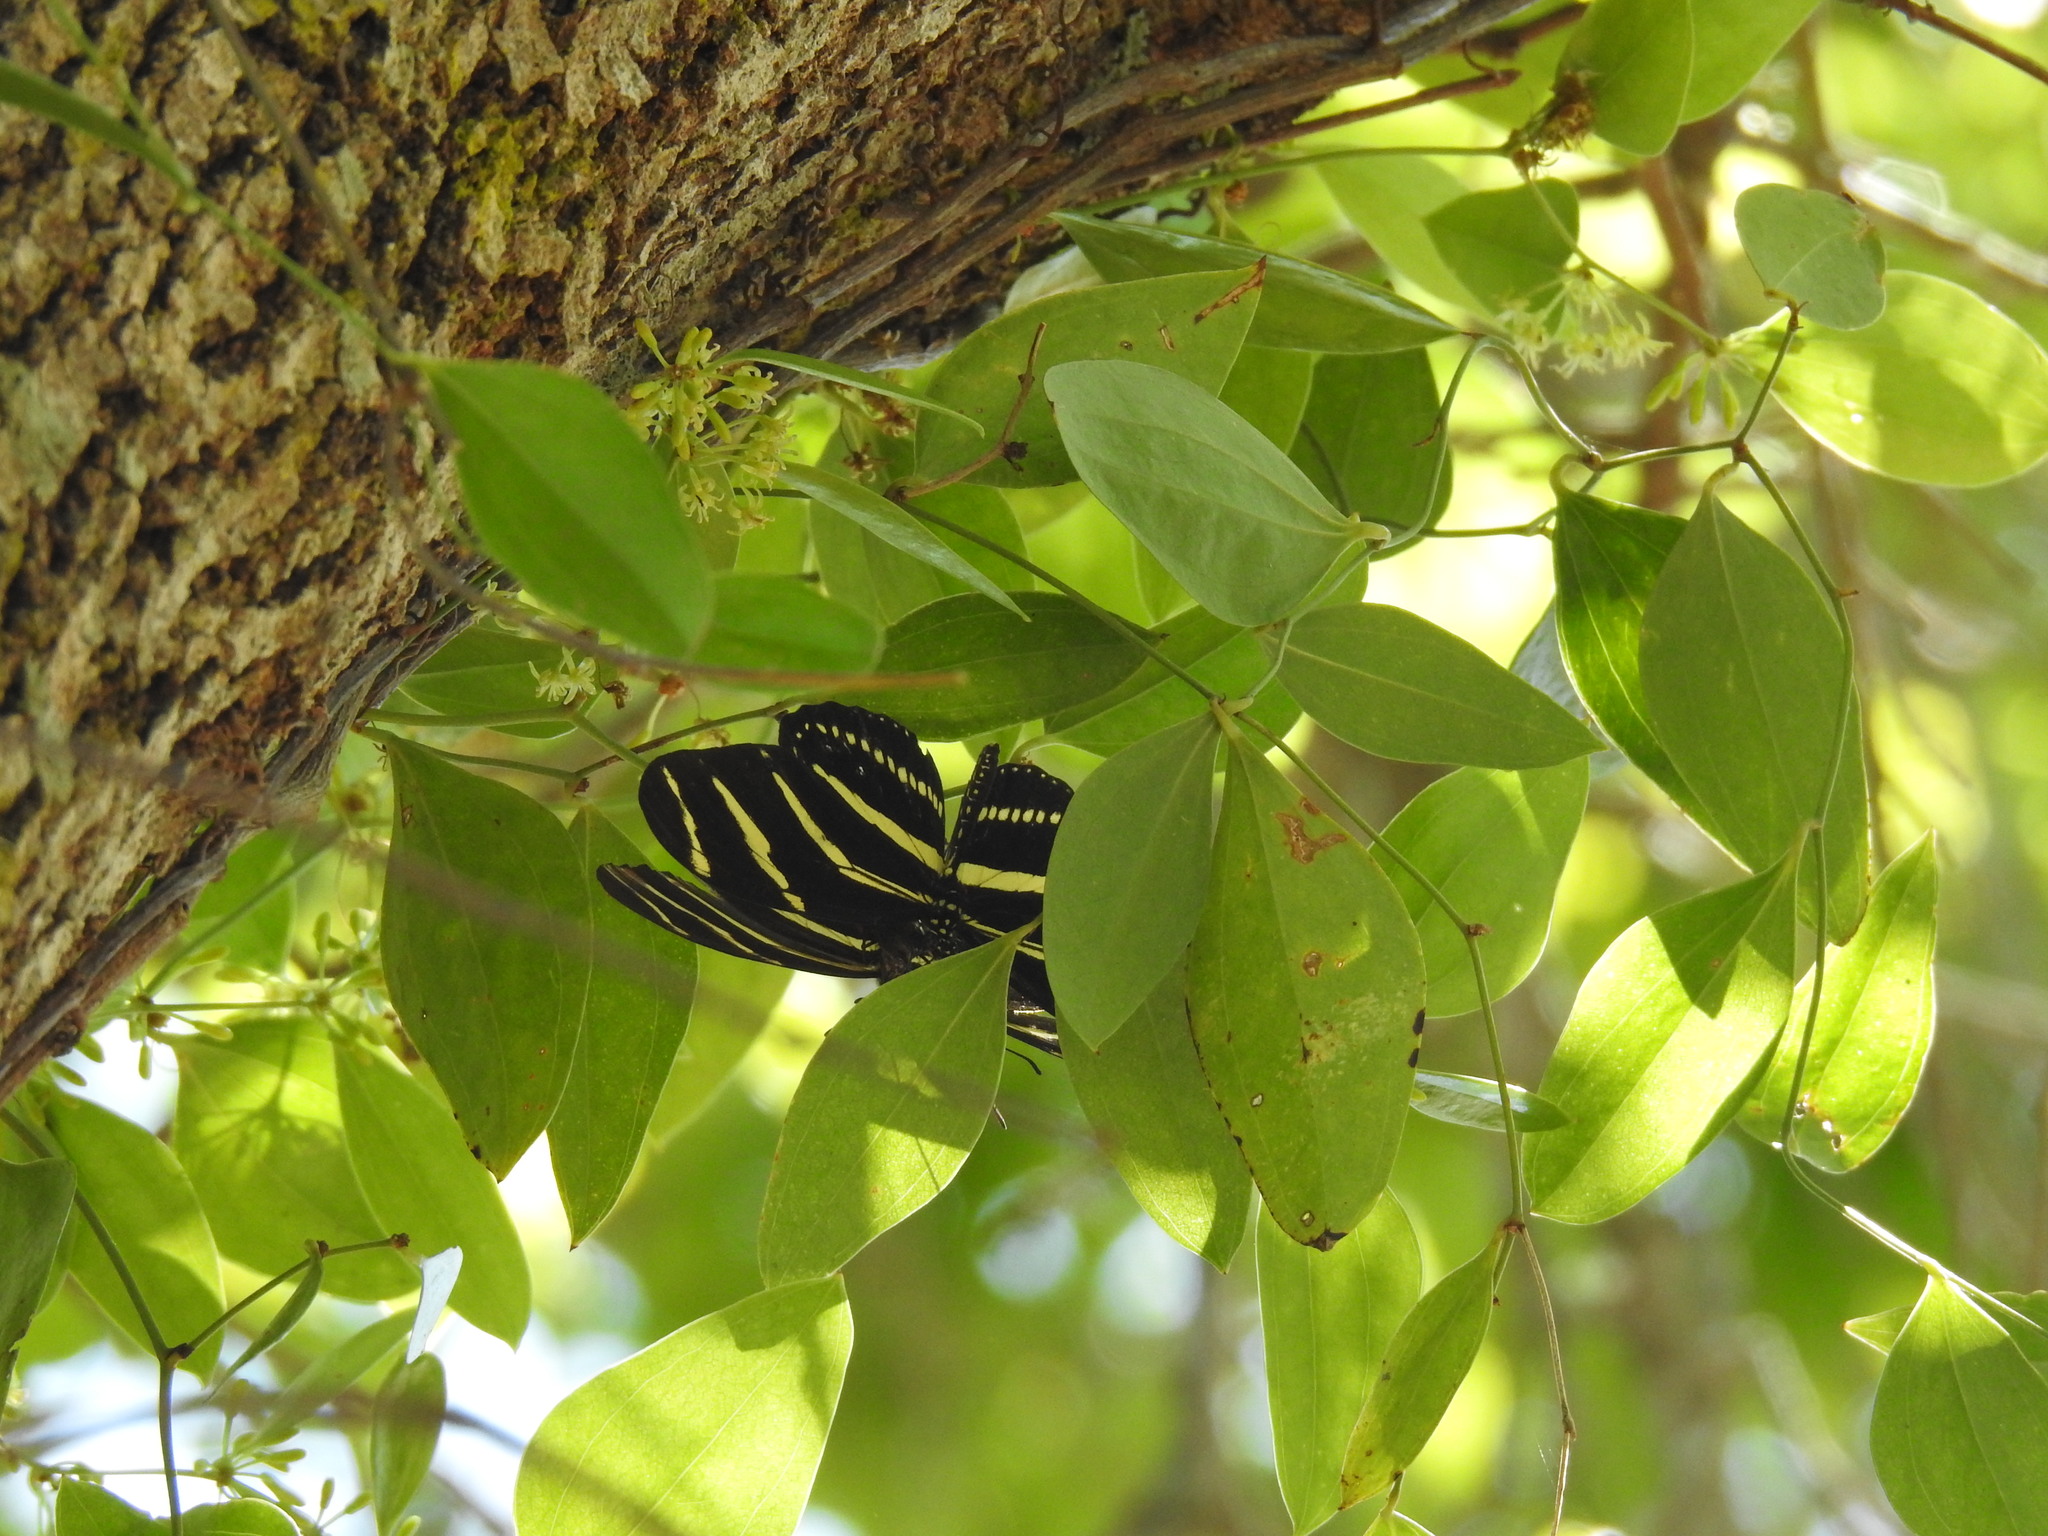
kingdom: Animalia
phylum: Arthropoda
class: Insecta
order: Lepidoptera
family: Nymphalidae
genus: Heliconius
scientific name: Heliconius charithonia
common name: Zebra long wing
